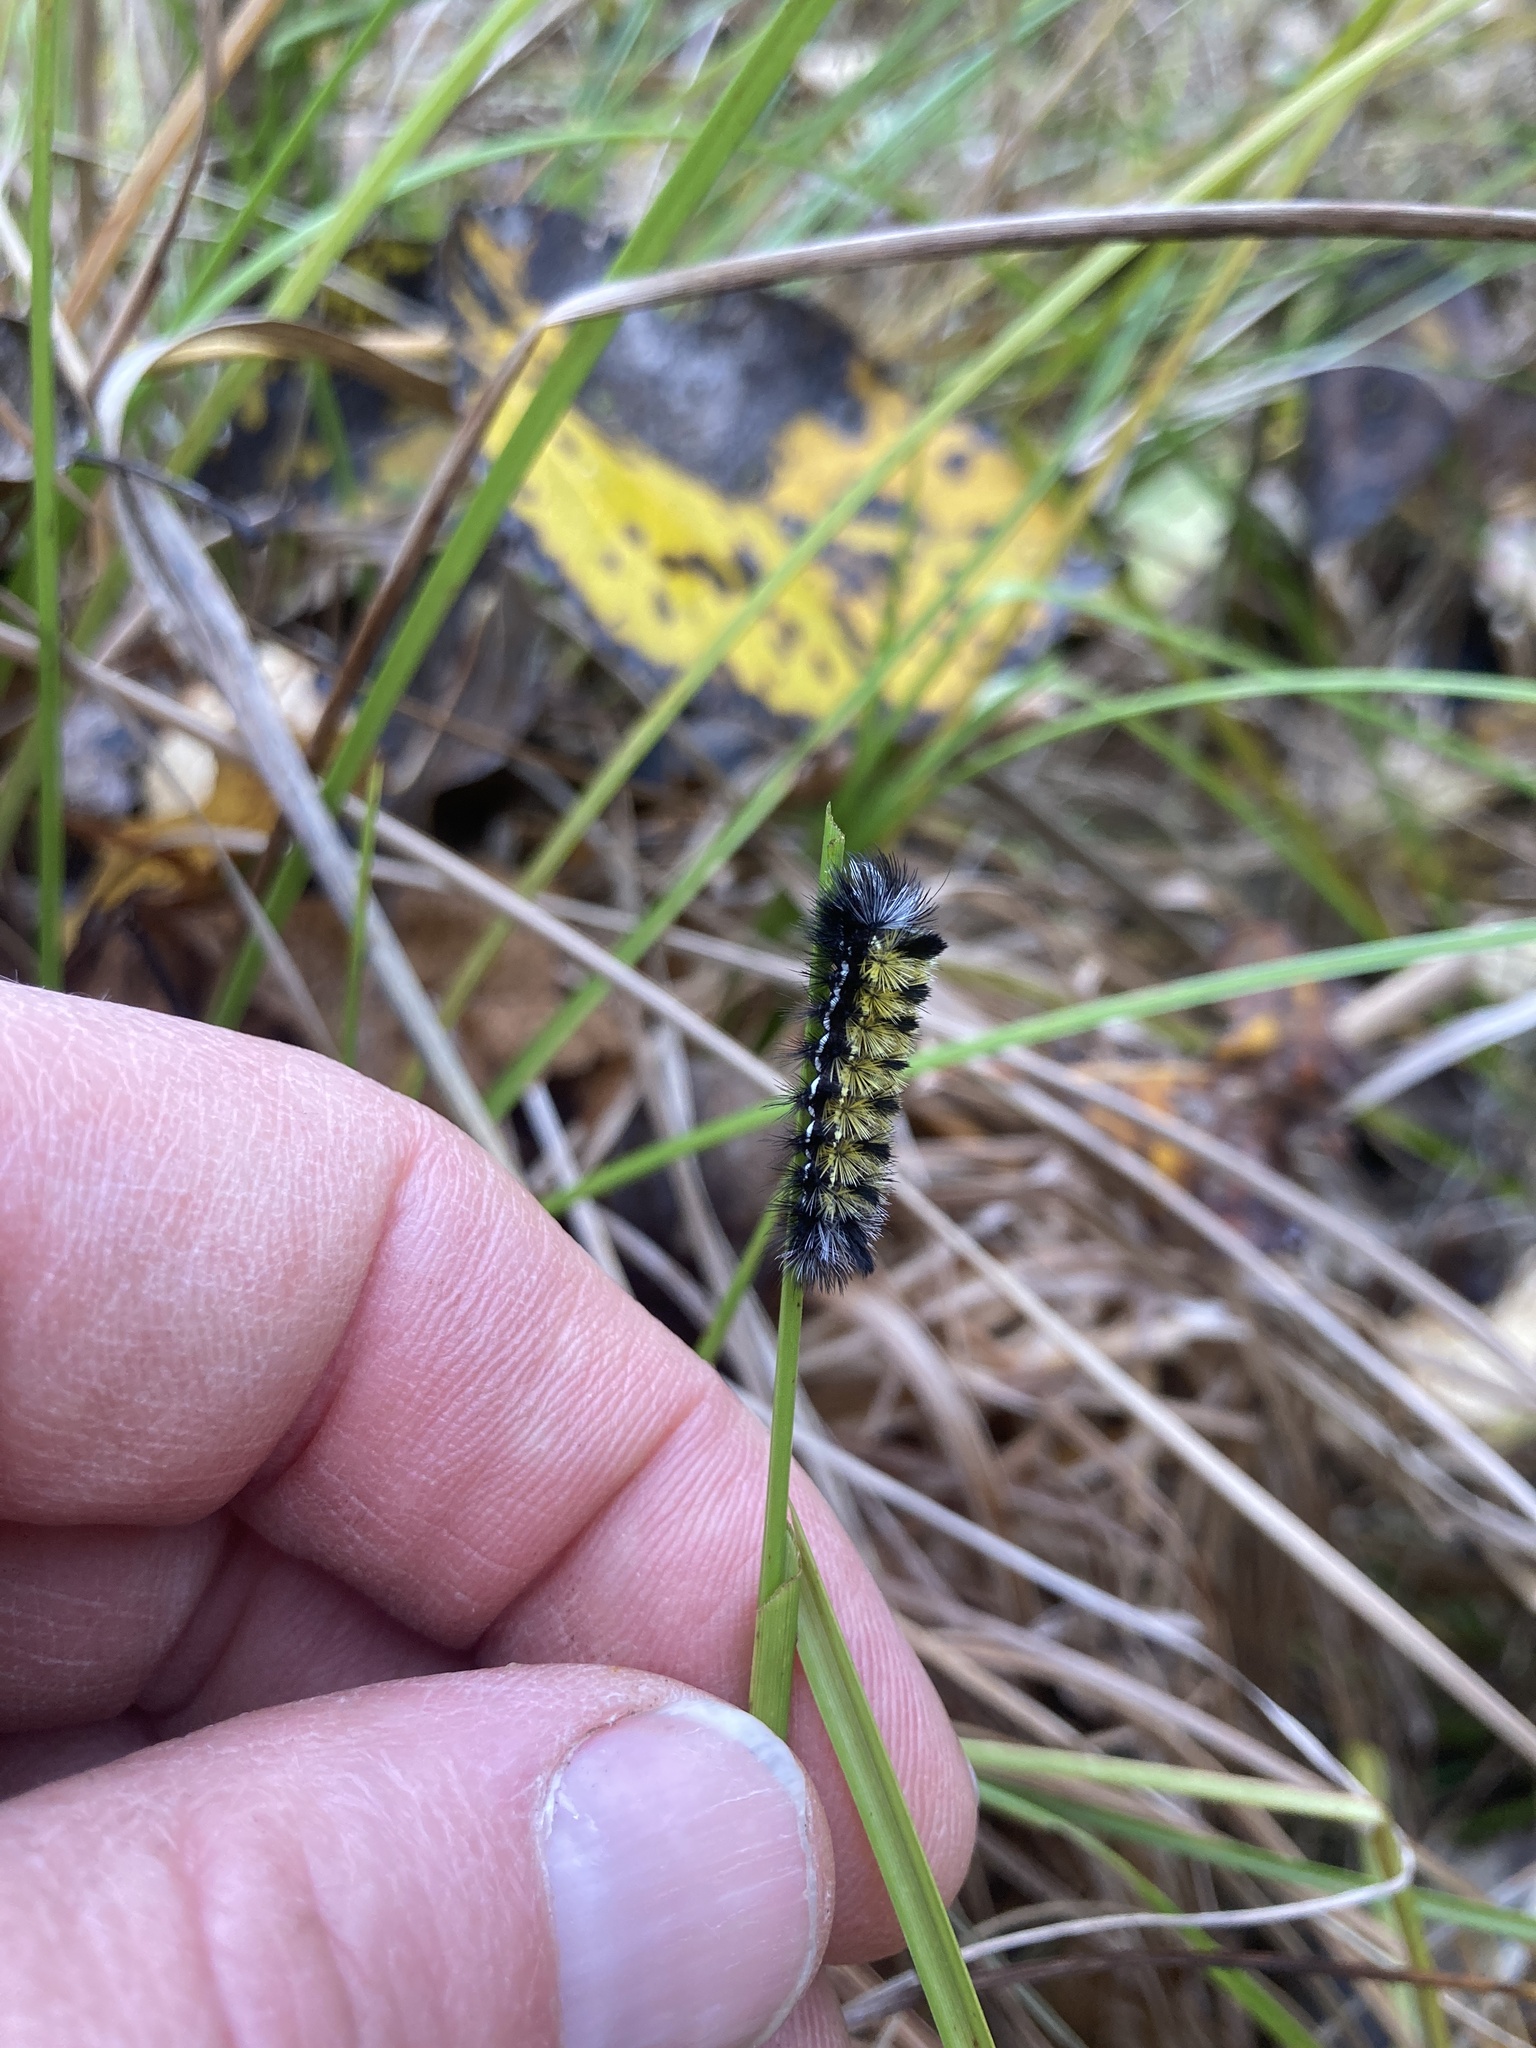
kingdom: Animalia
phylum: Arthropoda
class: Insecta
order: Lepidoptera
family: Erebidae
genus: Ctenucha
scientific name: Ctenucha virginica
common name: Virginia ctenucha moth
